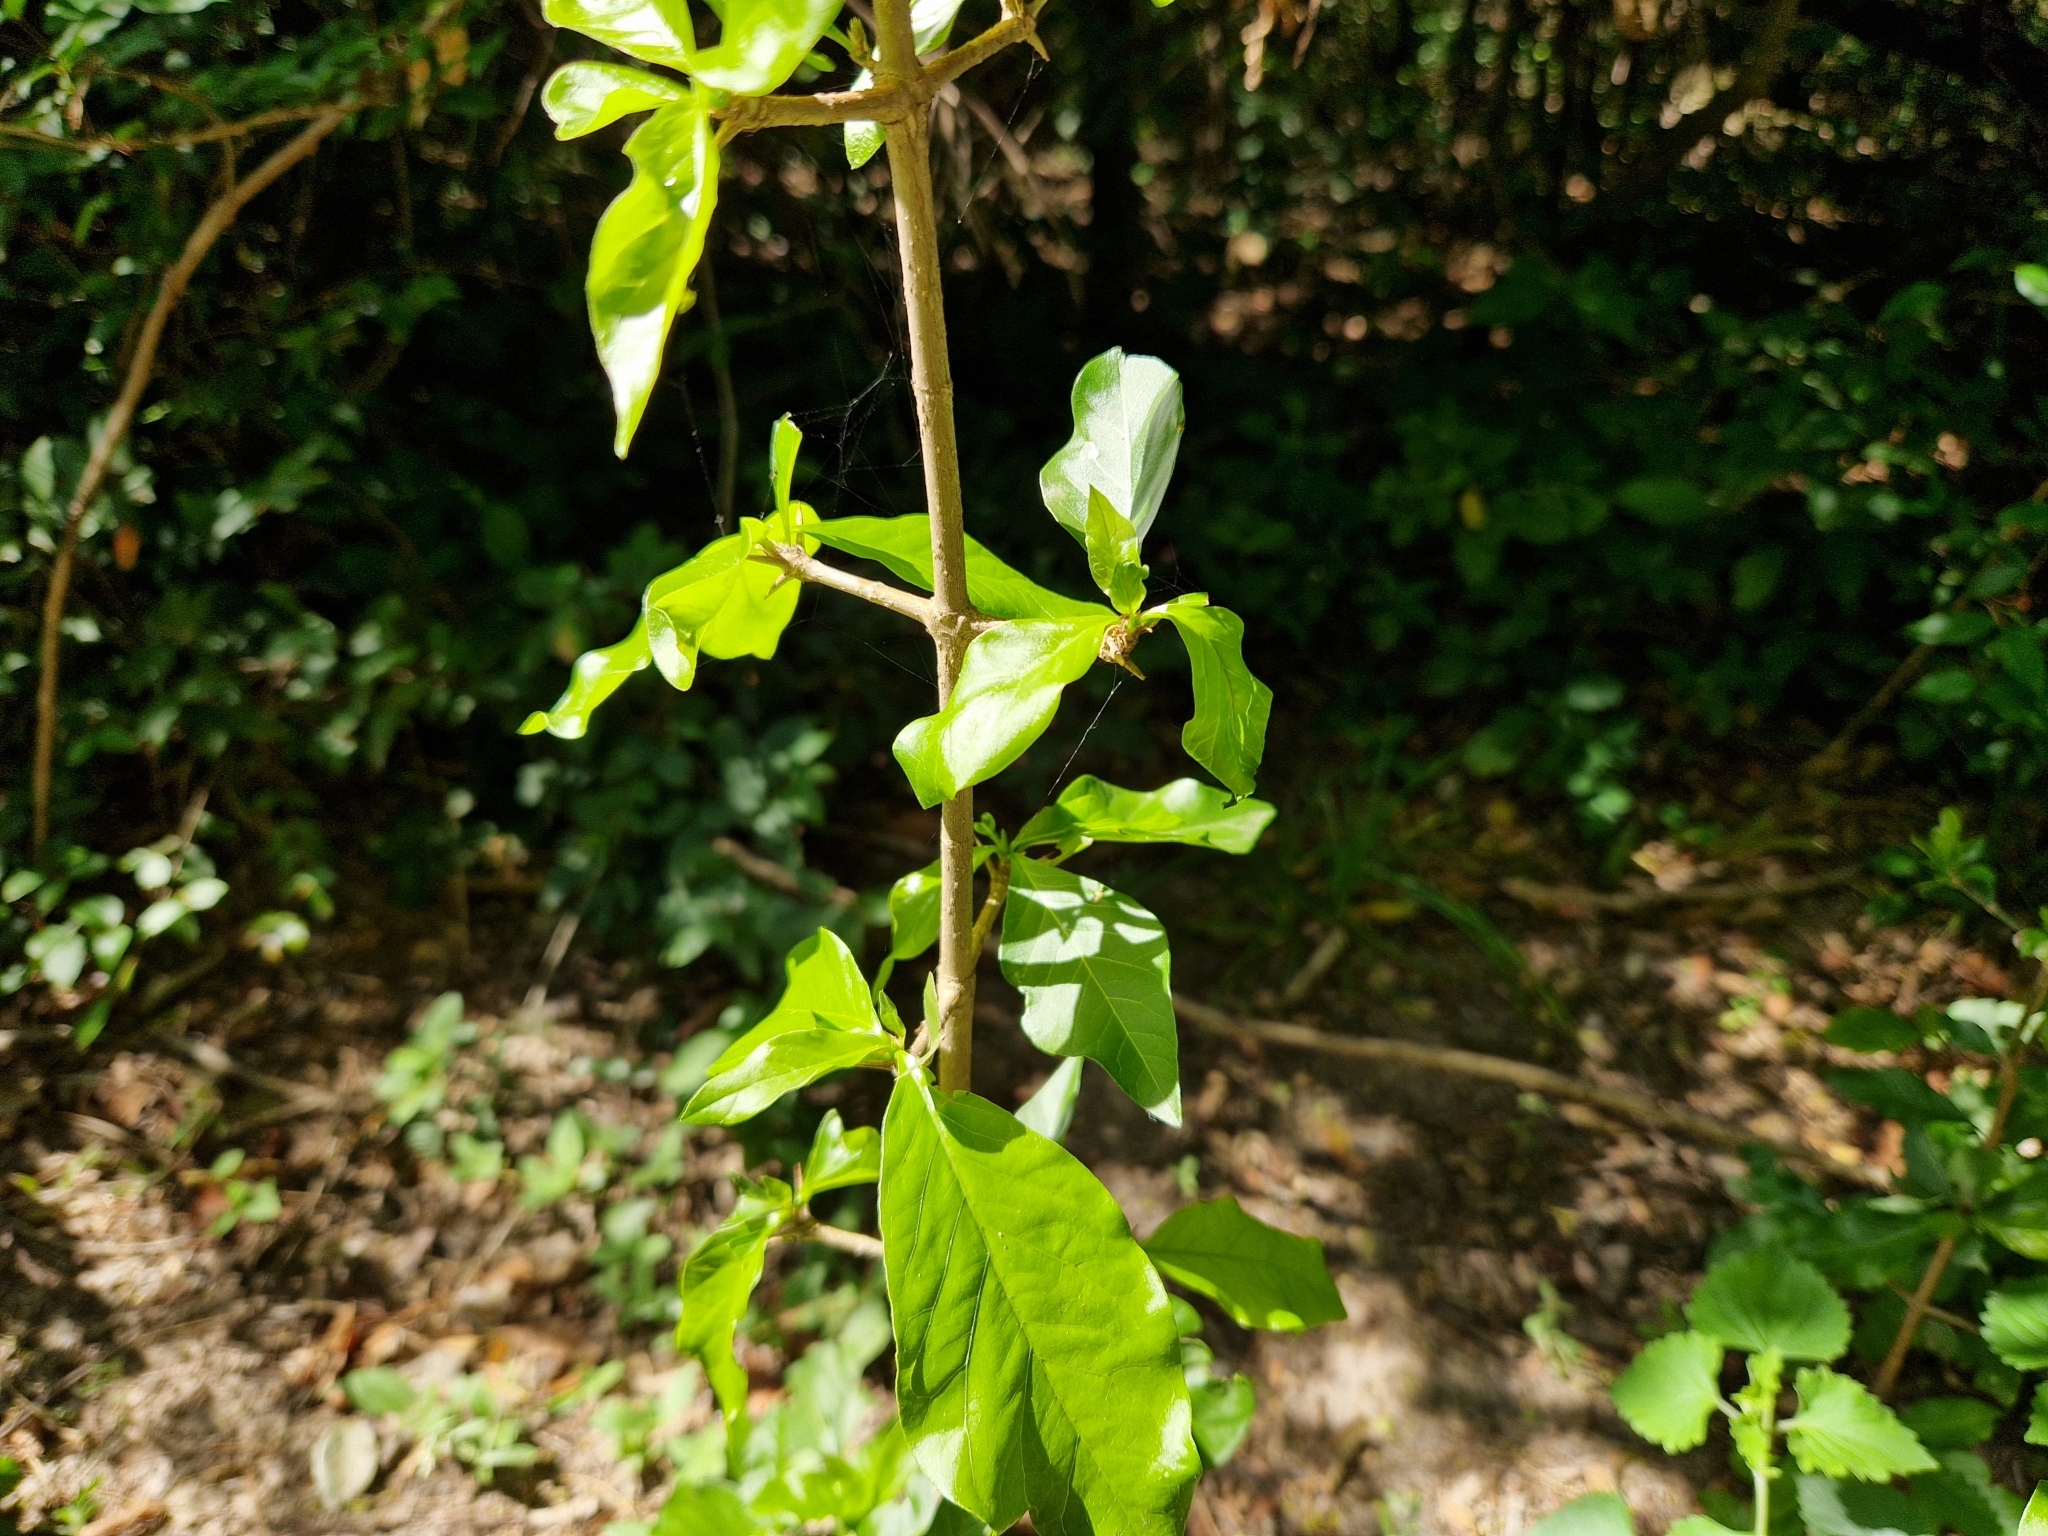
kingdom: Plantae
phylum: Tracheophyta
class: Magnoliopsida
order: Gentianales
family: Rubiaceae
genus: Randia
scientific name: Randia heteromera
